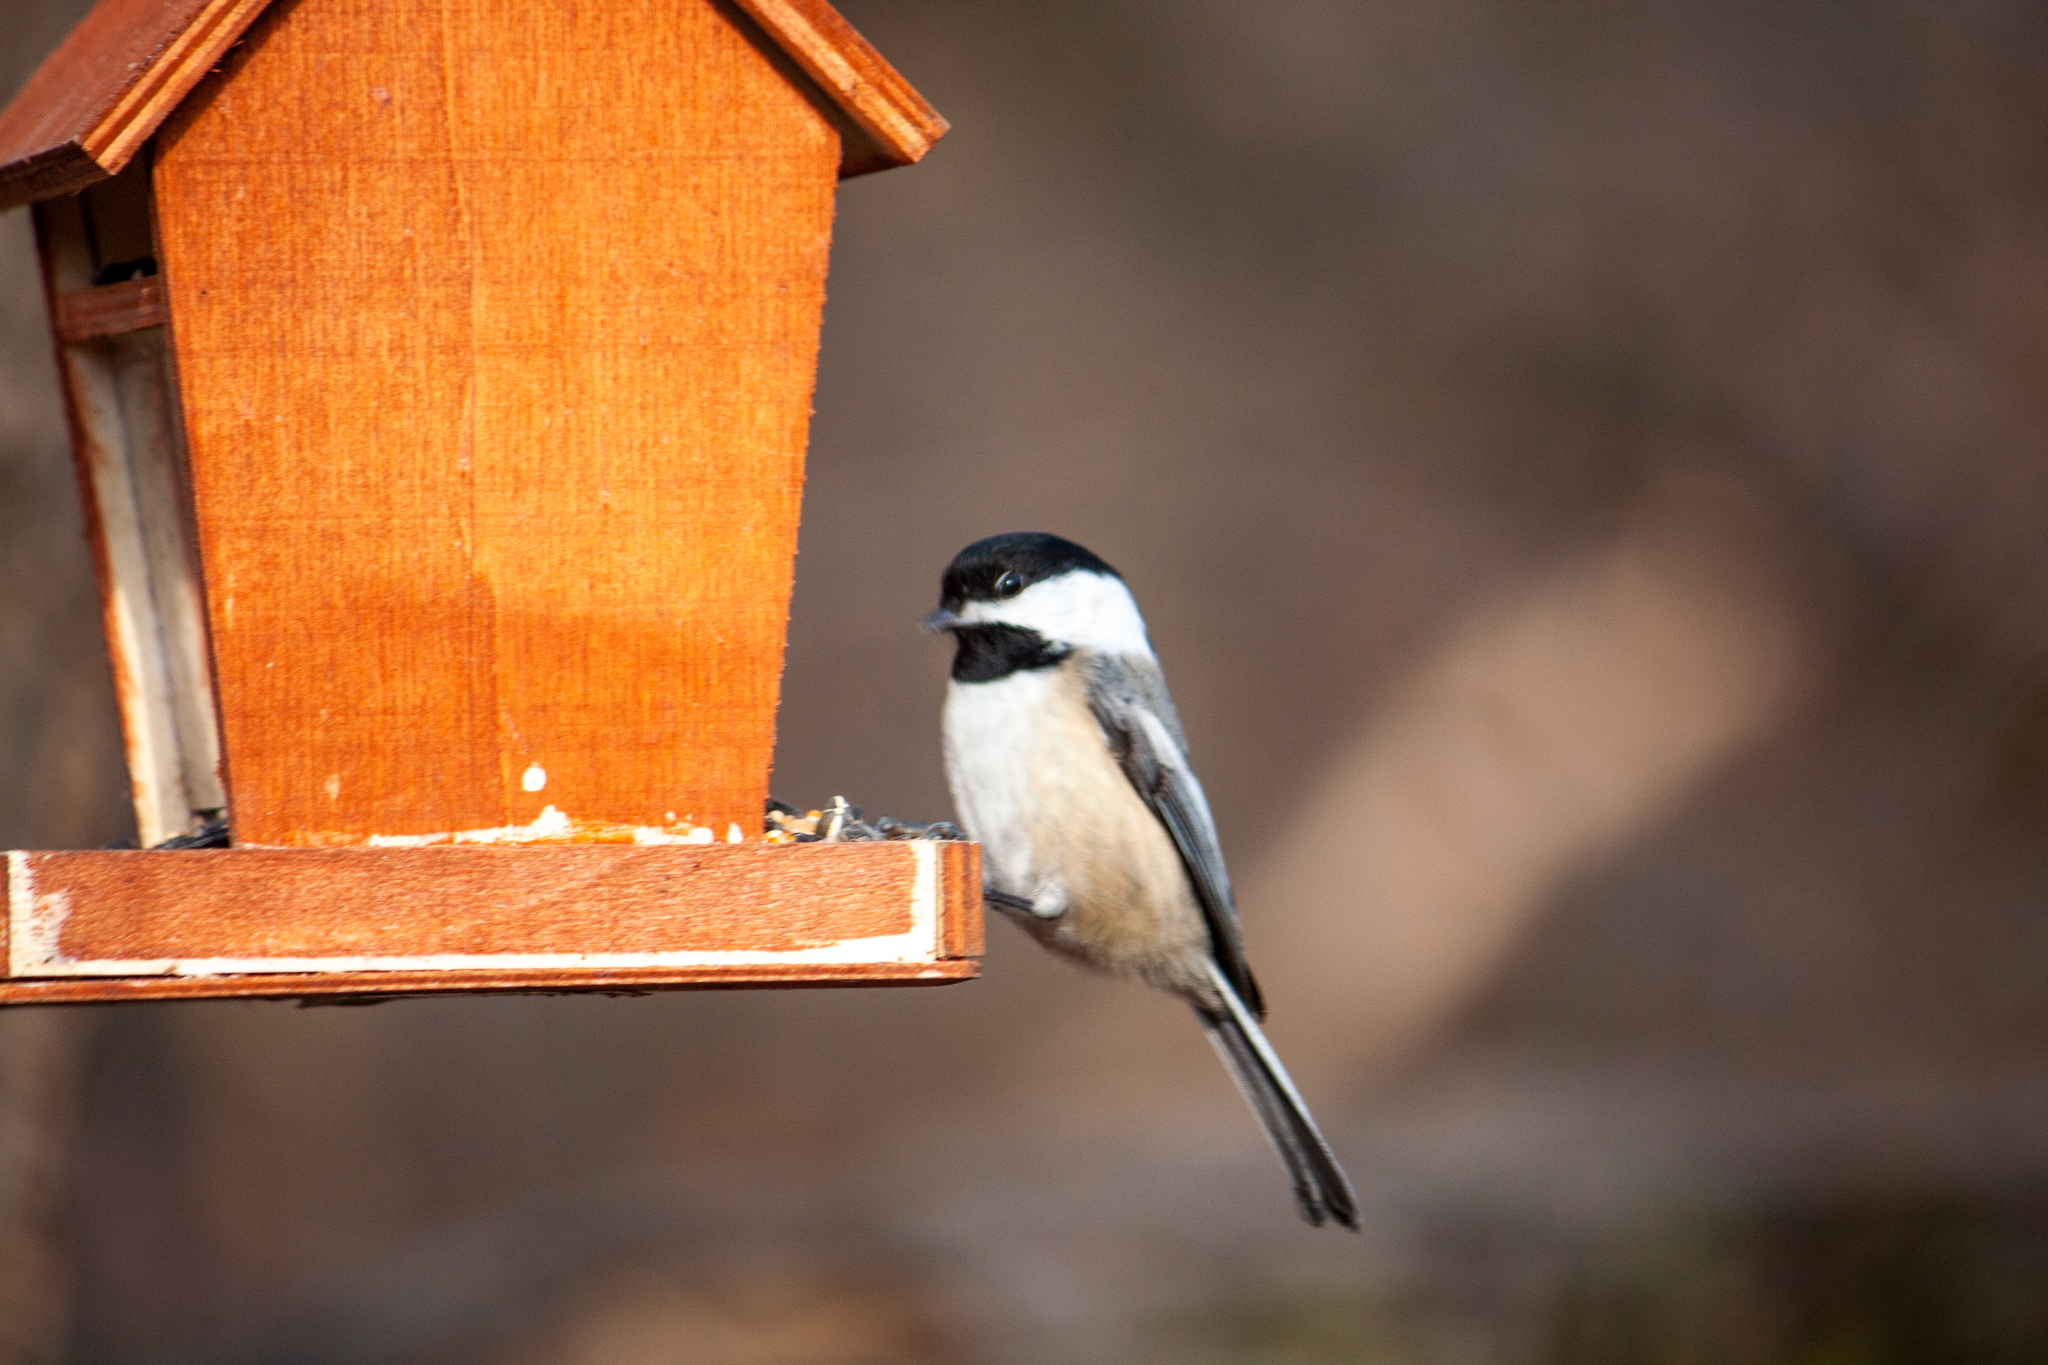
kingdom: Animalia
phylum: Chordata
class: Aves
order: Passeriformes
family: Paridae
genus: Poecile
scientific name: Poecile atricapillus
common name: Black-capped chickadee
